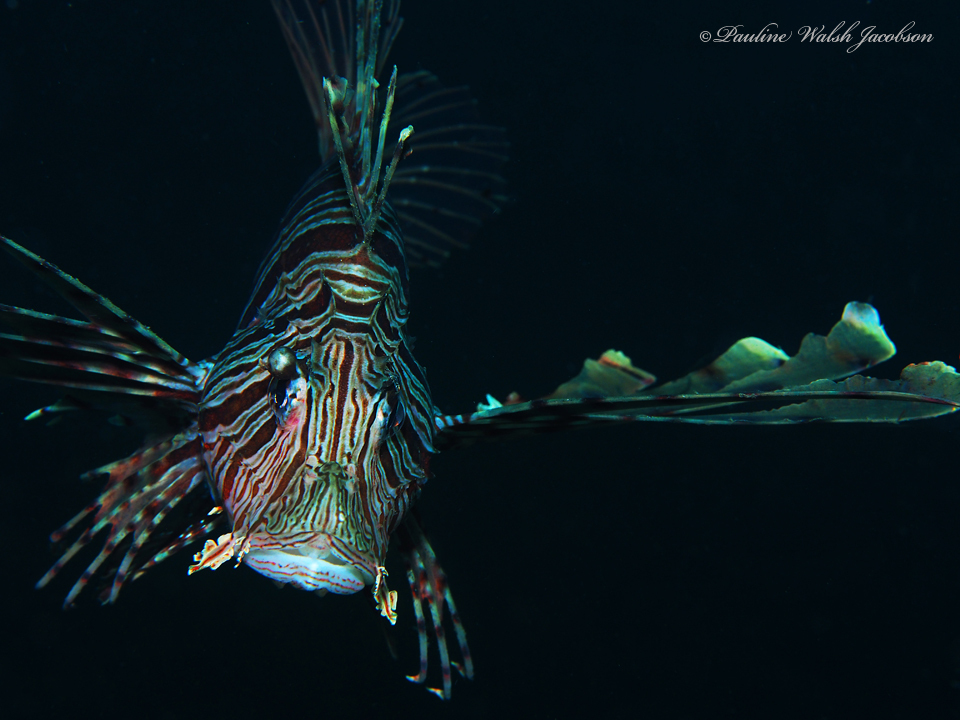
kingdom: Animalia
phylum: Chordata
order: Scorpaeniformes
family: Scorpaenidae
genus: Pterois
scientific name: Pterois volitans
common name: Lionfish
